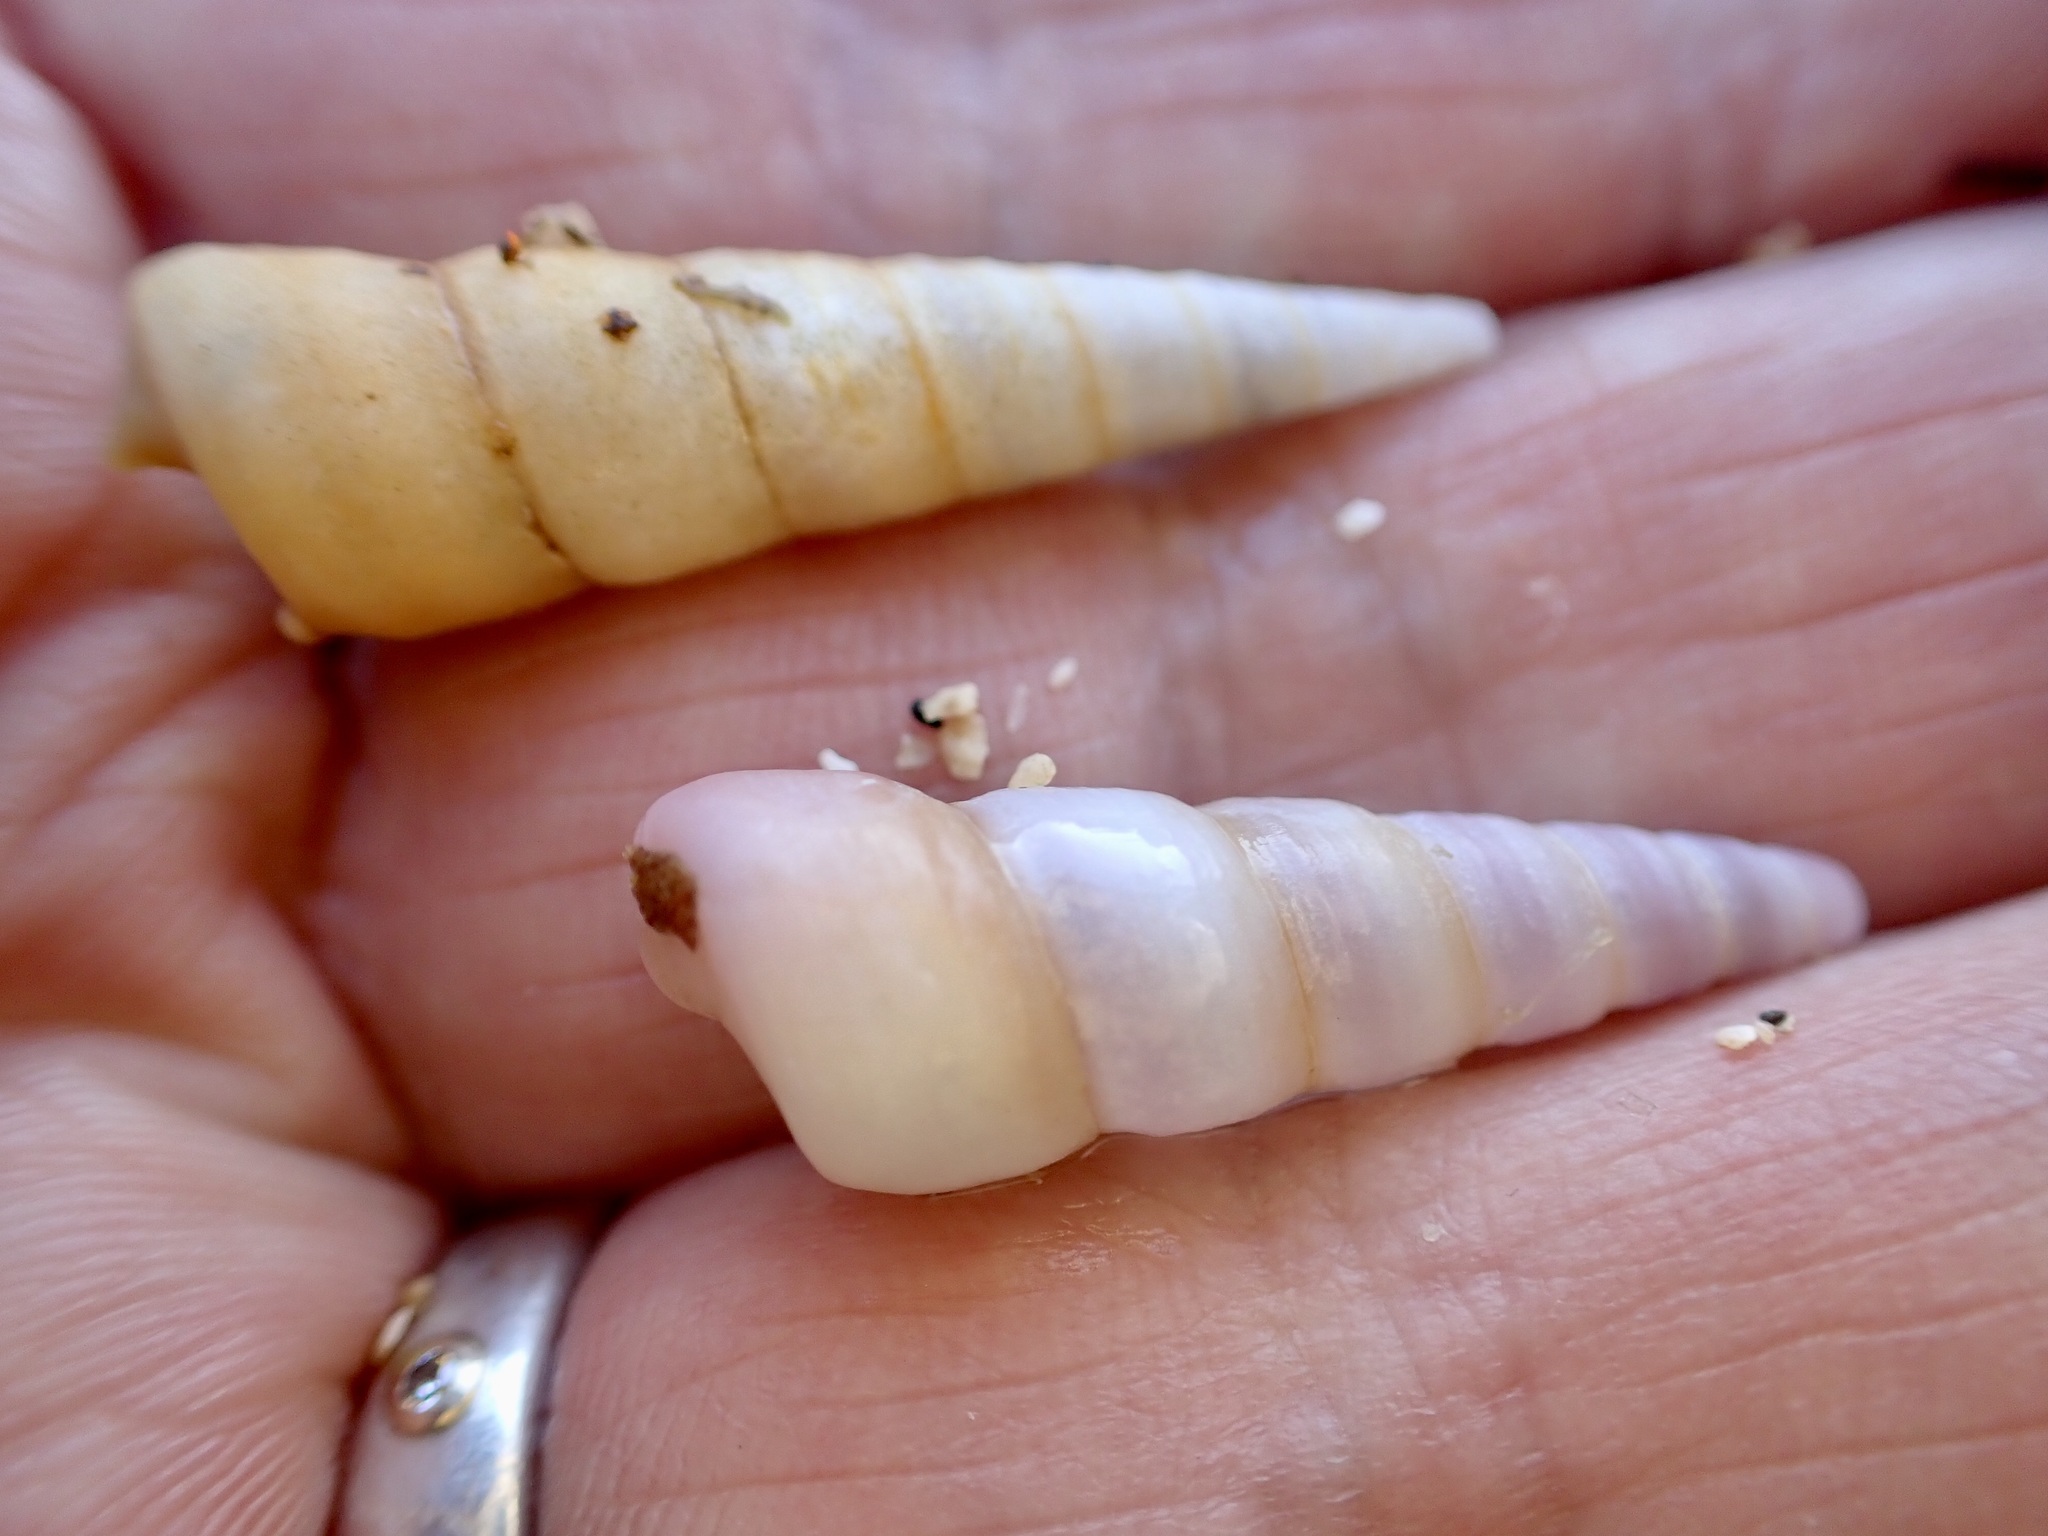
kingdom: Animalia
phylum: Mollusca
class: Gastropoda
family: Turritellidae
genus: Maoricolpus
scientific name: Maoricolpus roseus
